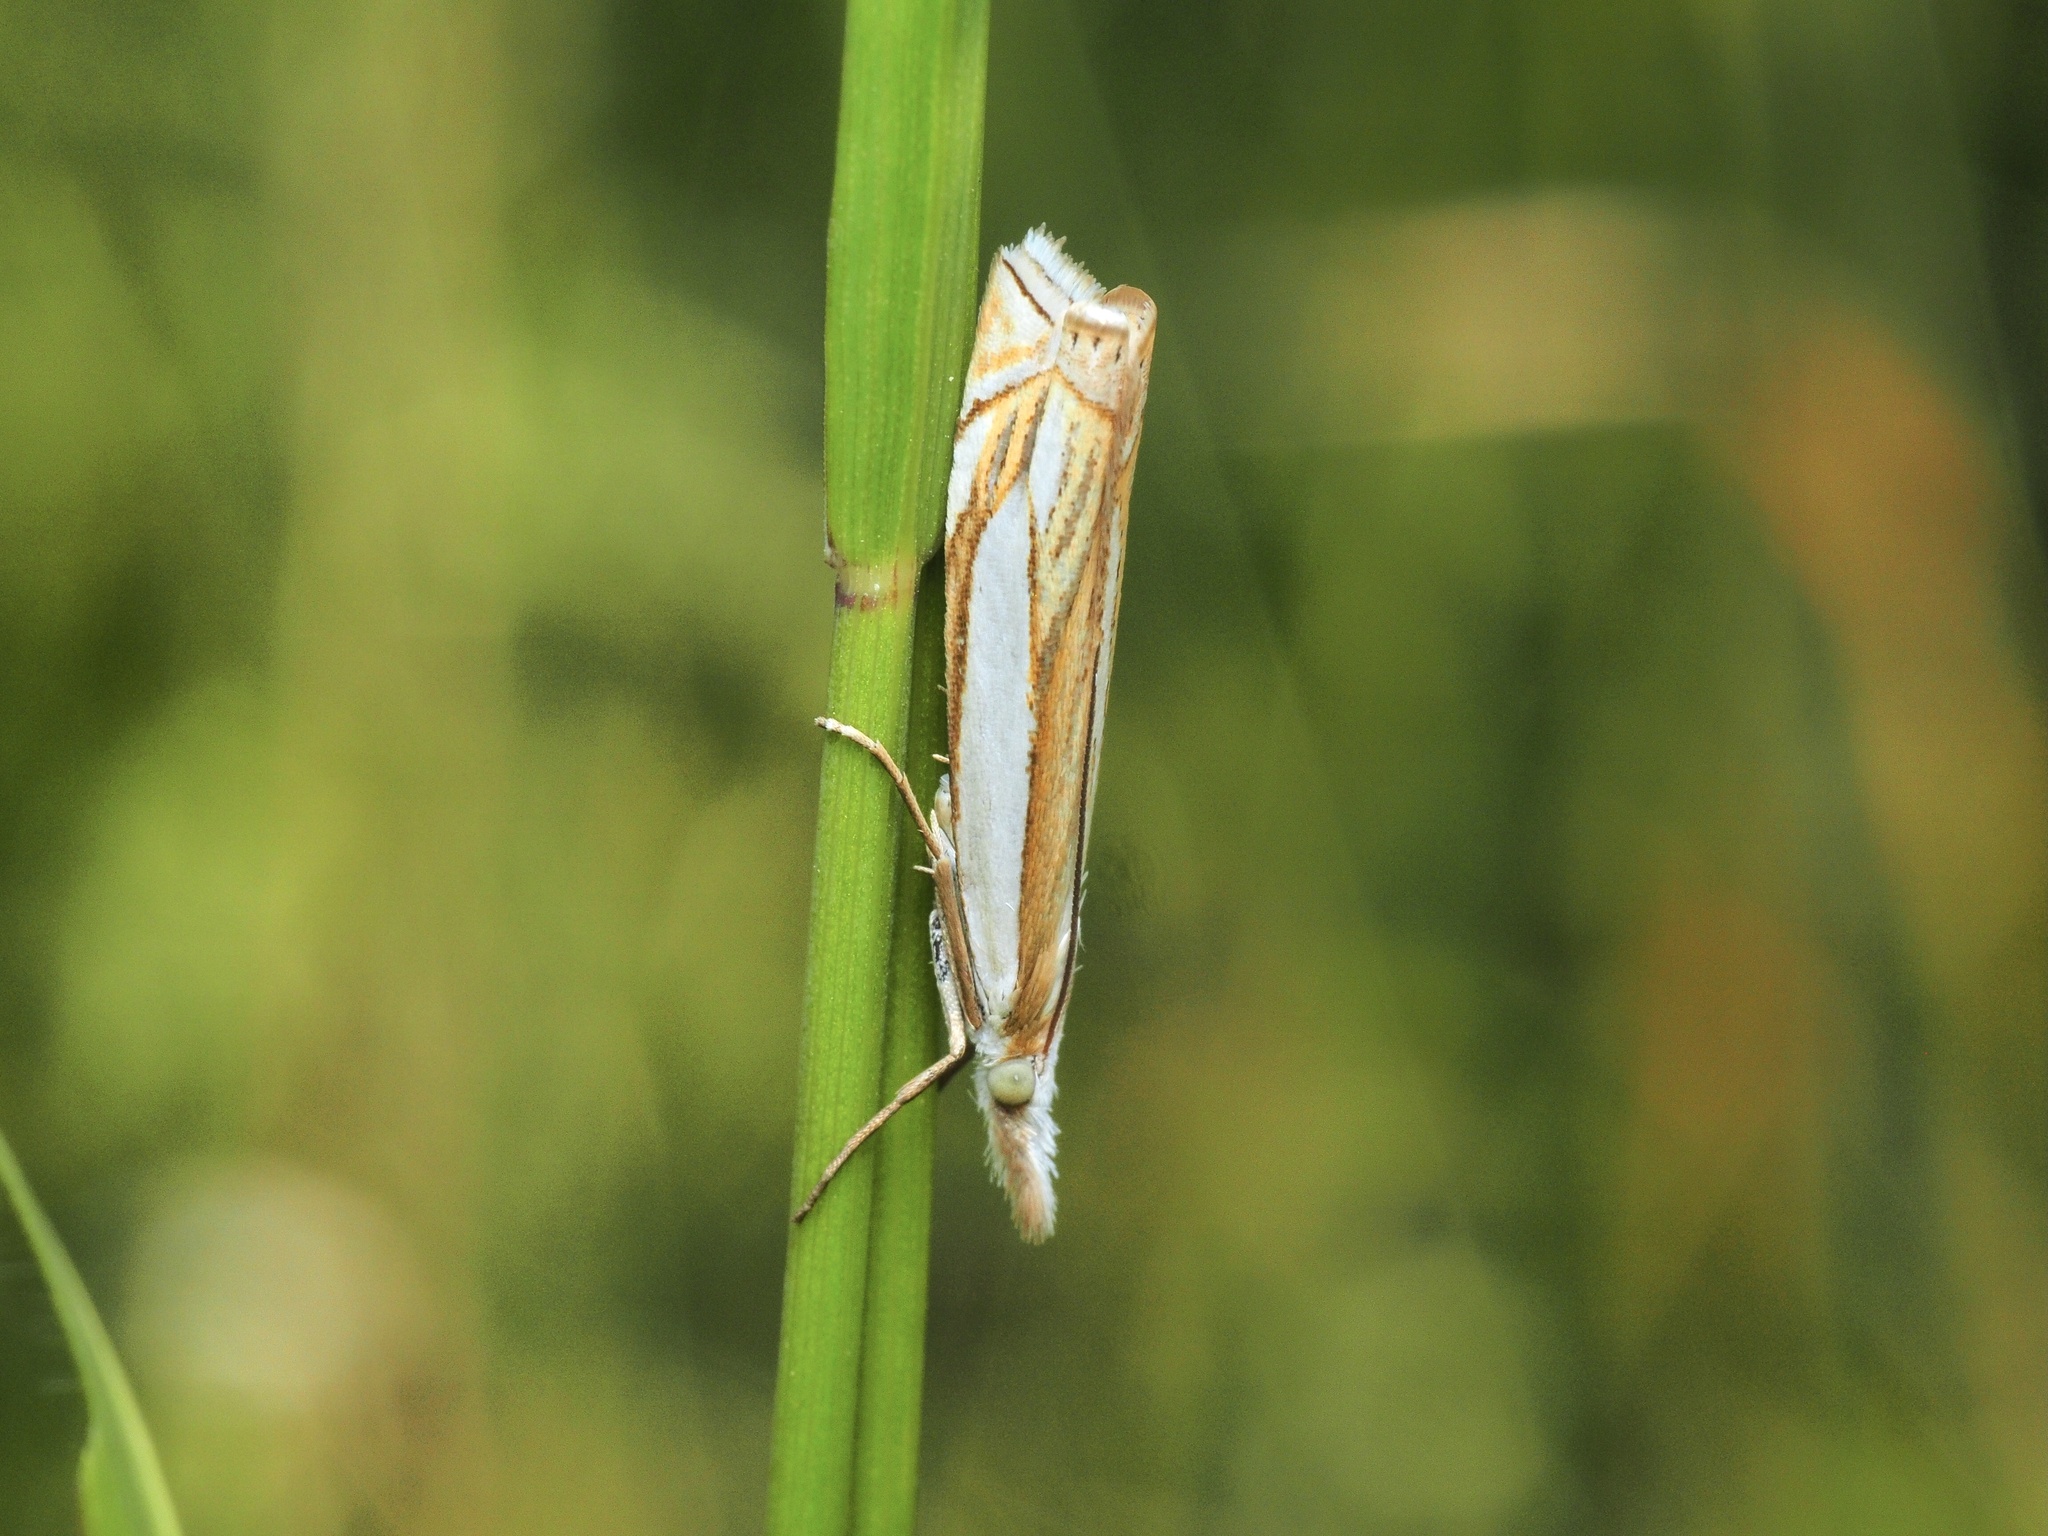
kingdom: Animalia
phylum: Arthropoda
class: Insecta
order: Lepidoptera
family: Crambidae
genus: Crambus
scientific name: Crambus pascuella
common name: Inlaid grass-veneer
